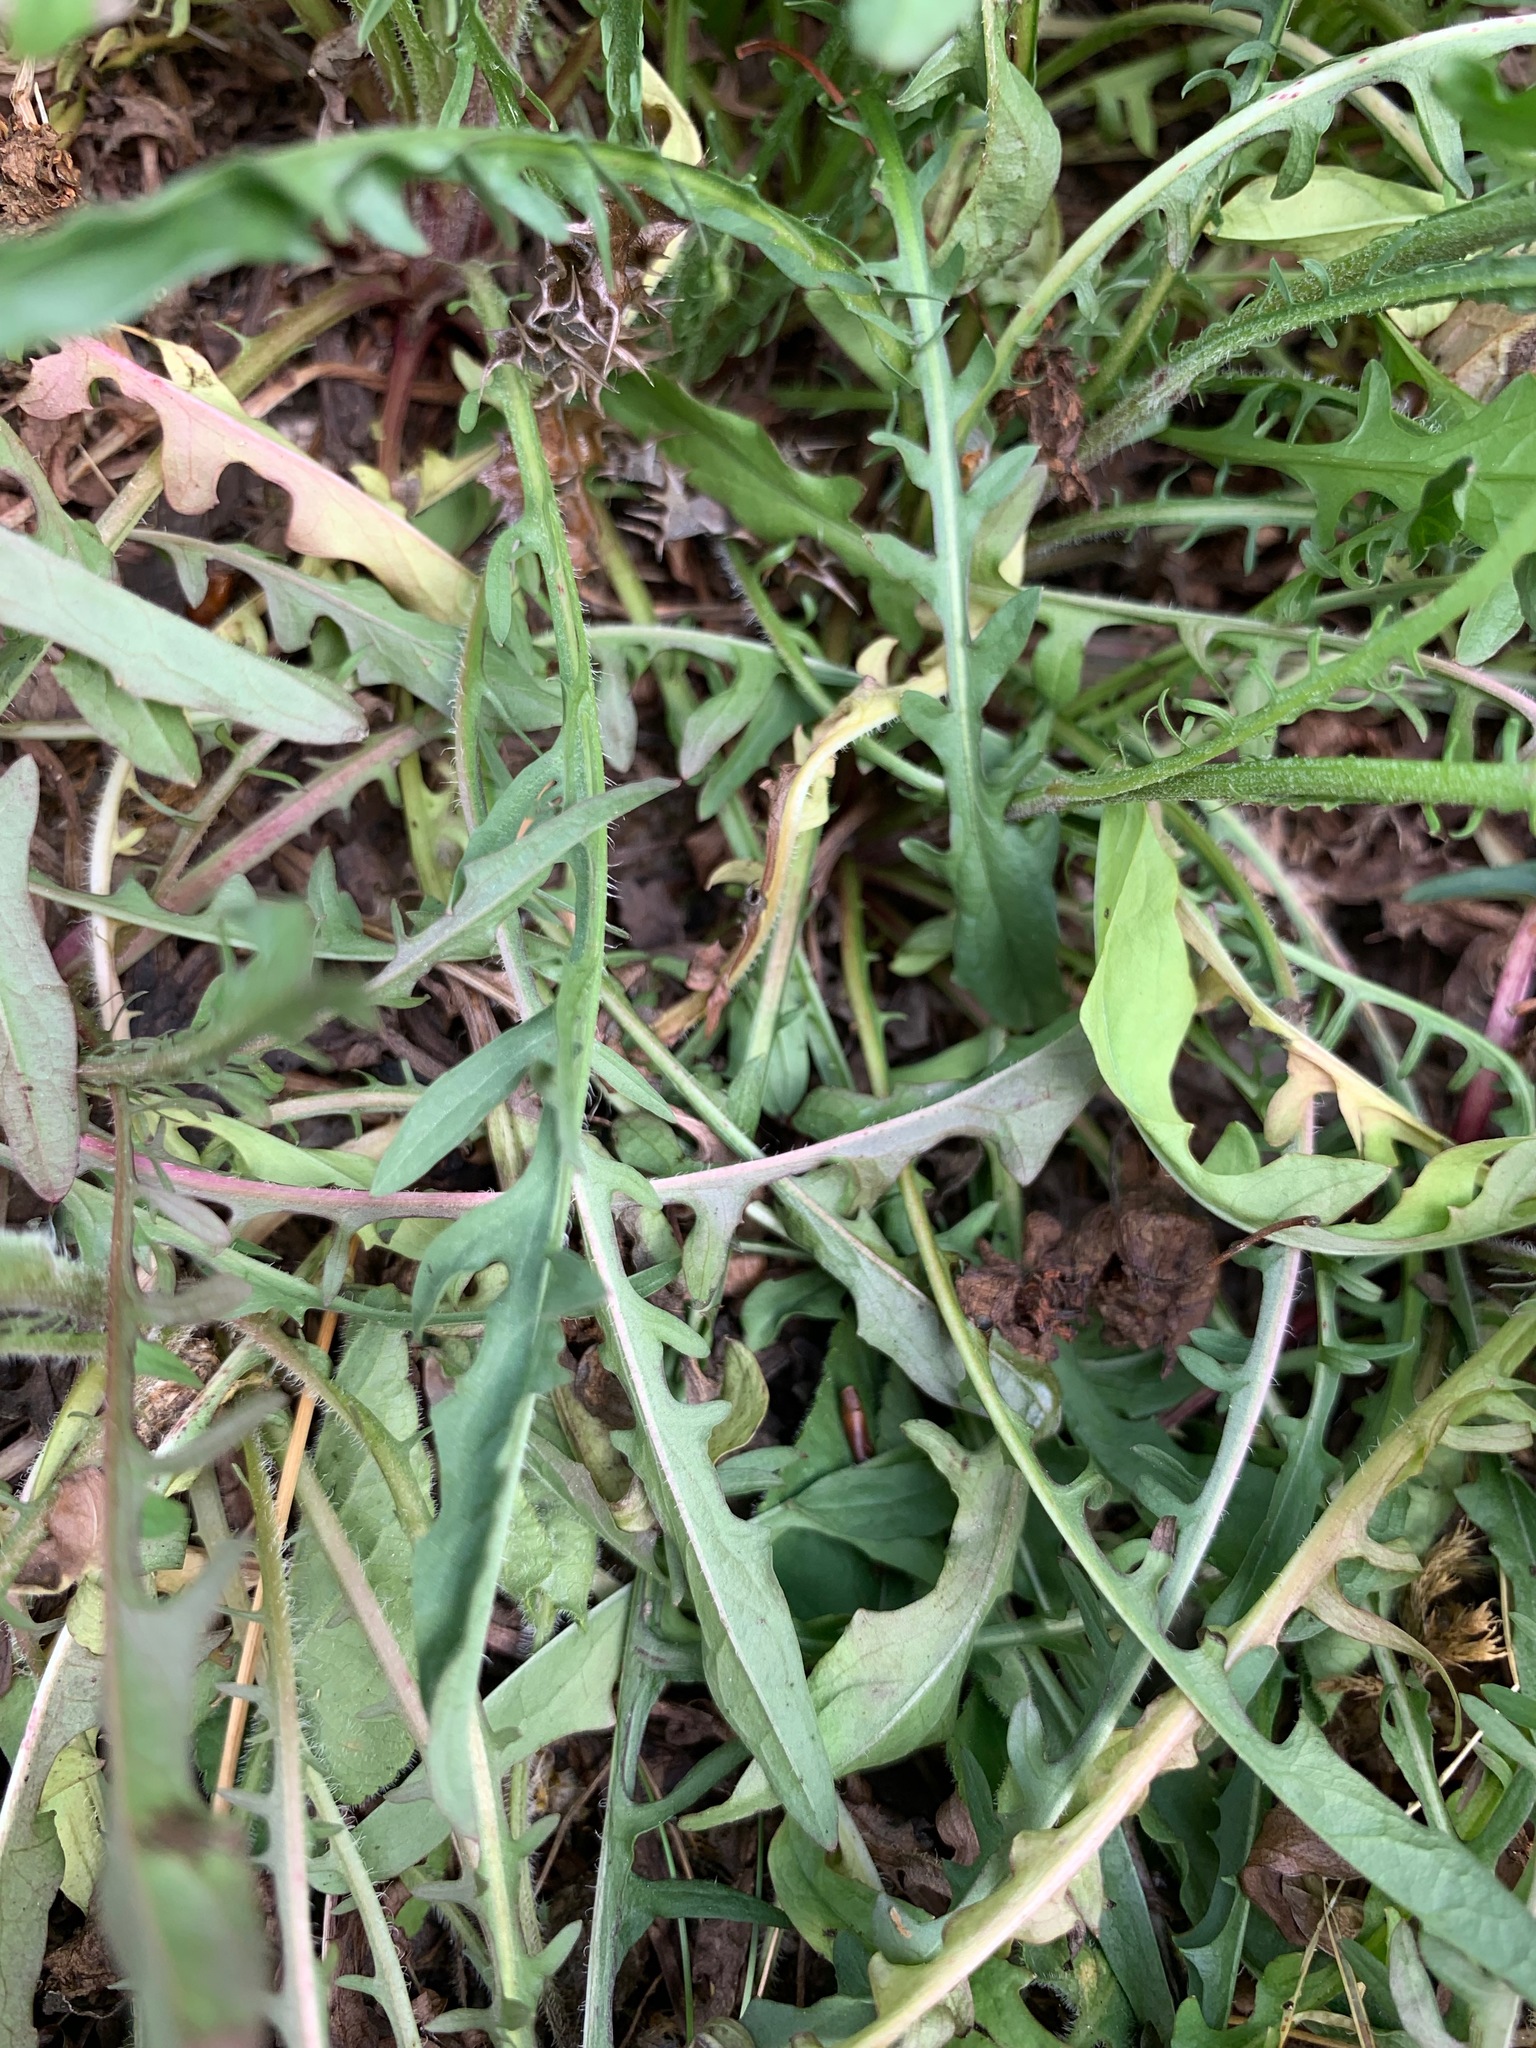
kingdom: Plantae
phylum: Tracheophyta
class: Magnoliopsida
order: Asterales
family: Asteraceae
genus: Crepis
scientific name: Crepis capillaris
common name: Smooth hawksbeard
